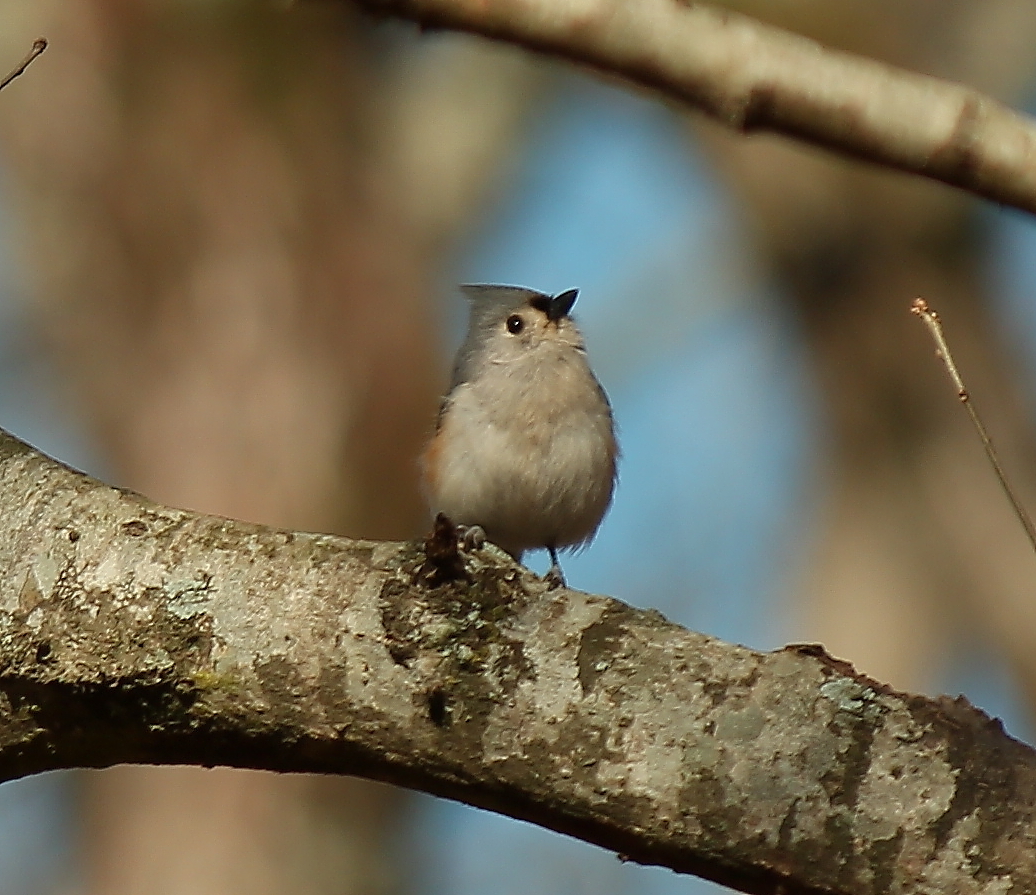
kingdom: Animalia
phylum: Chordata
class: Aves
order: Passeriformes
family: Paridae
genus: Baeolophus
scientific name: Baeolophus bicolor
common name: Tufted titmouse
